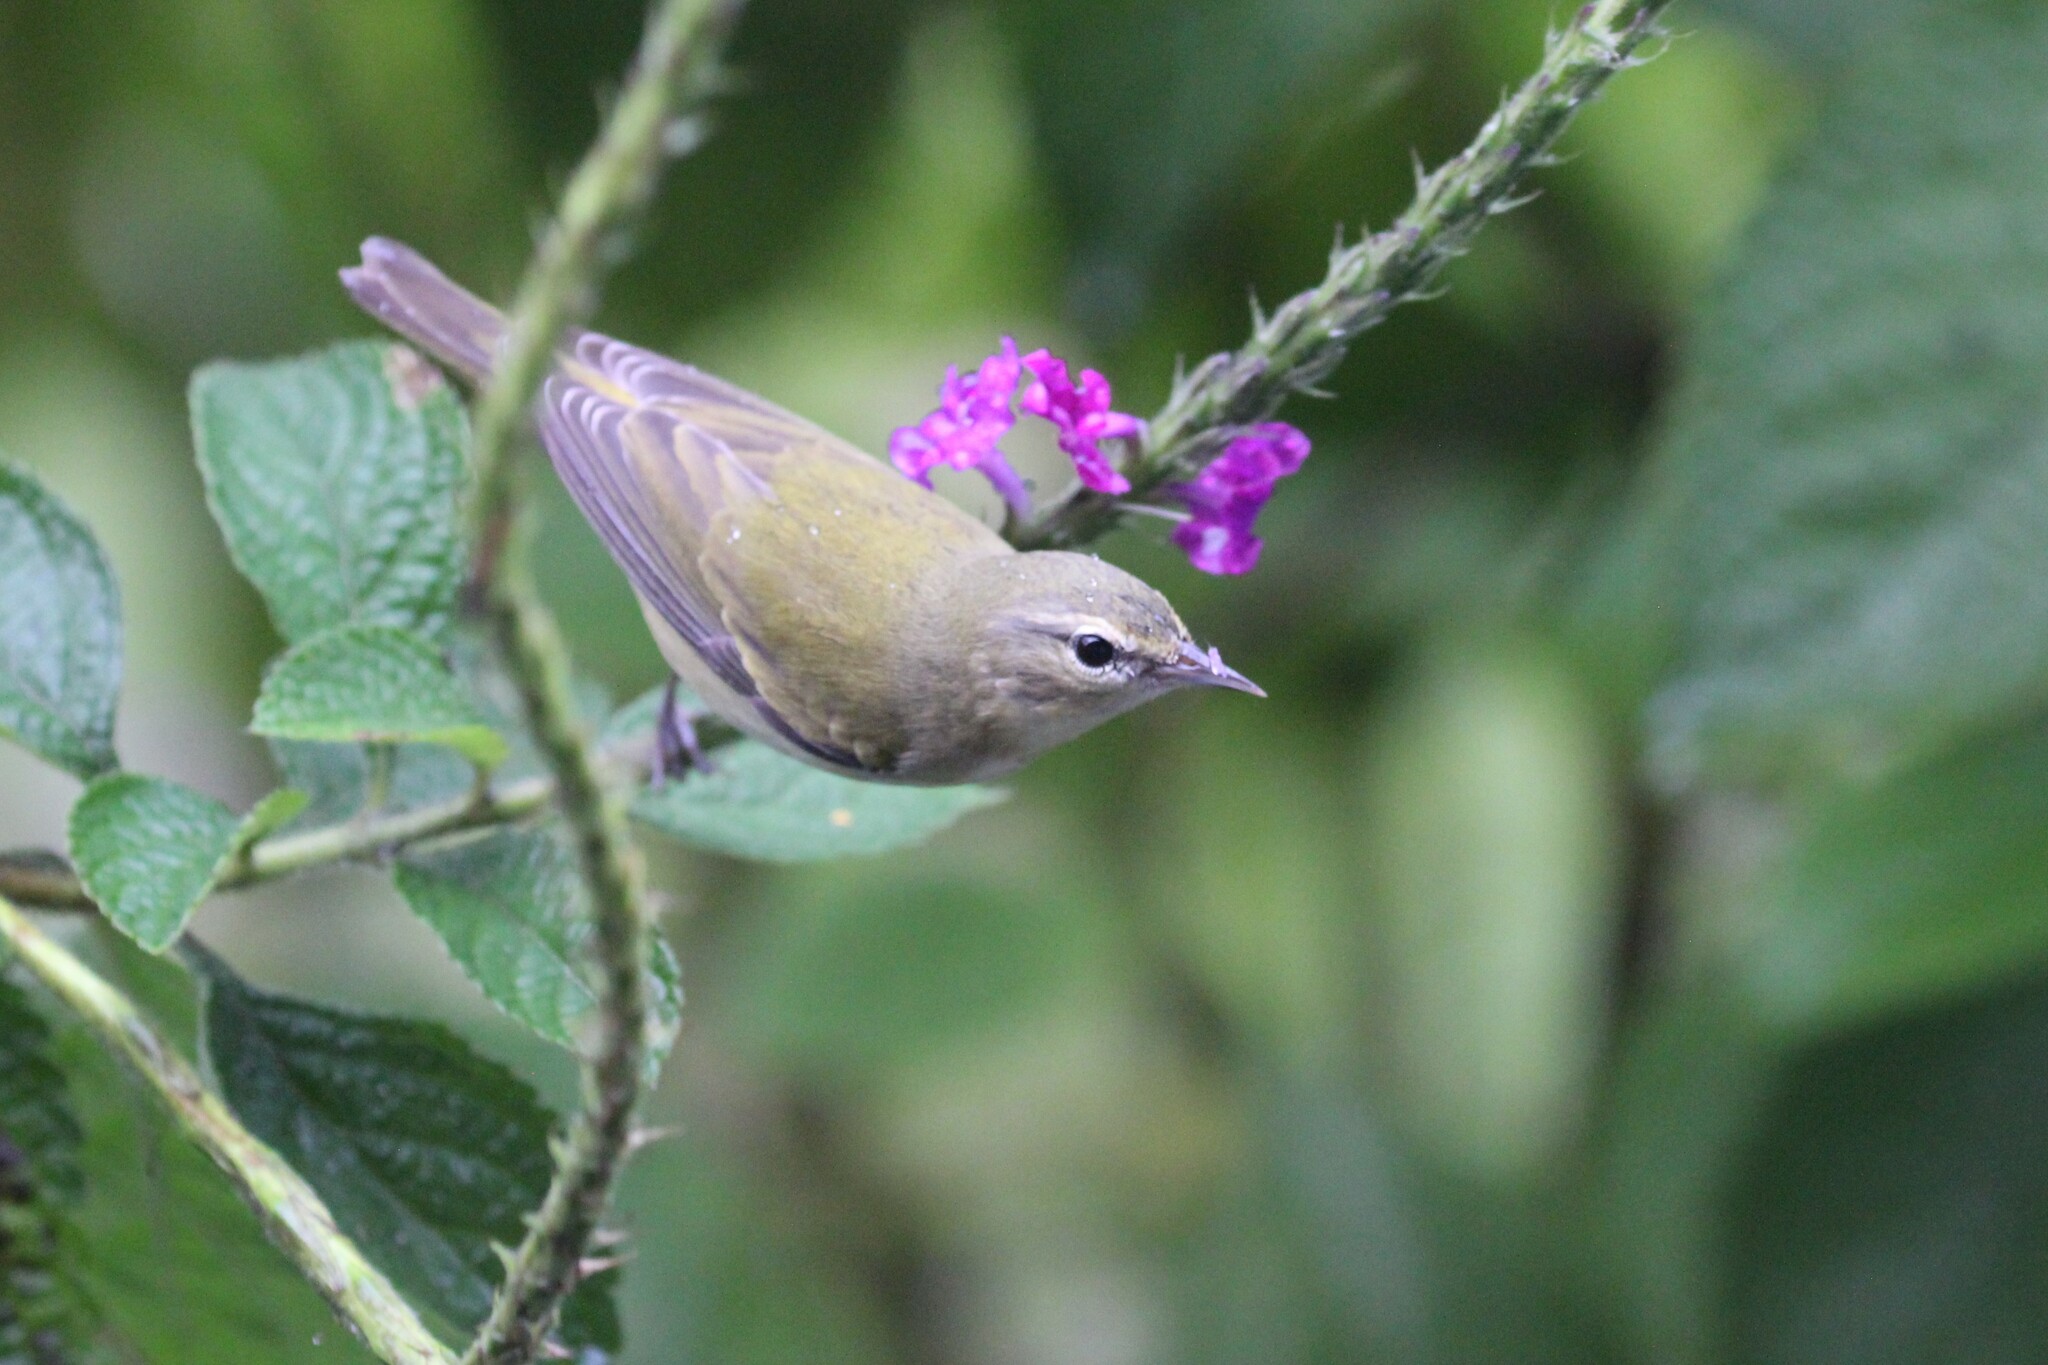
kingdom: Animalia
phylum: Chordata
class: Aves
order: Passeriformes
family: Parulidae
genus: Leiothlypis
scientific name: Leiothlypis peregrina
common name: Tennessee warbler
